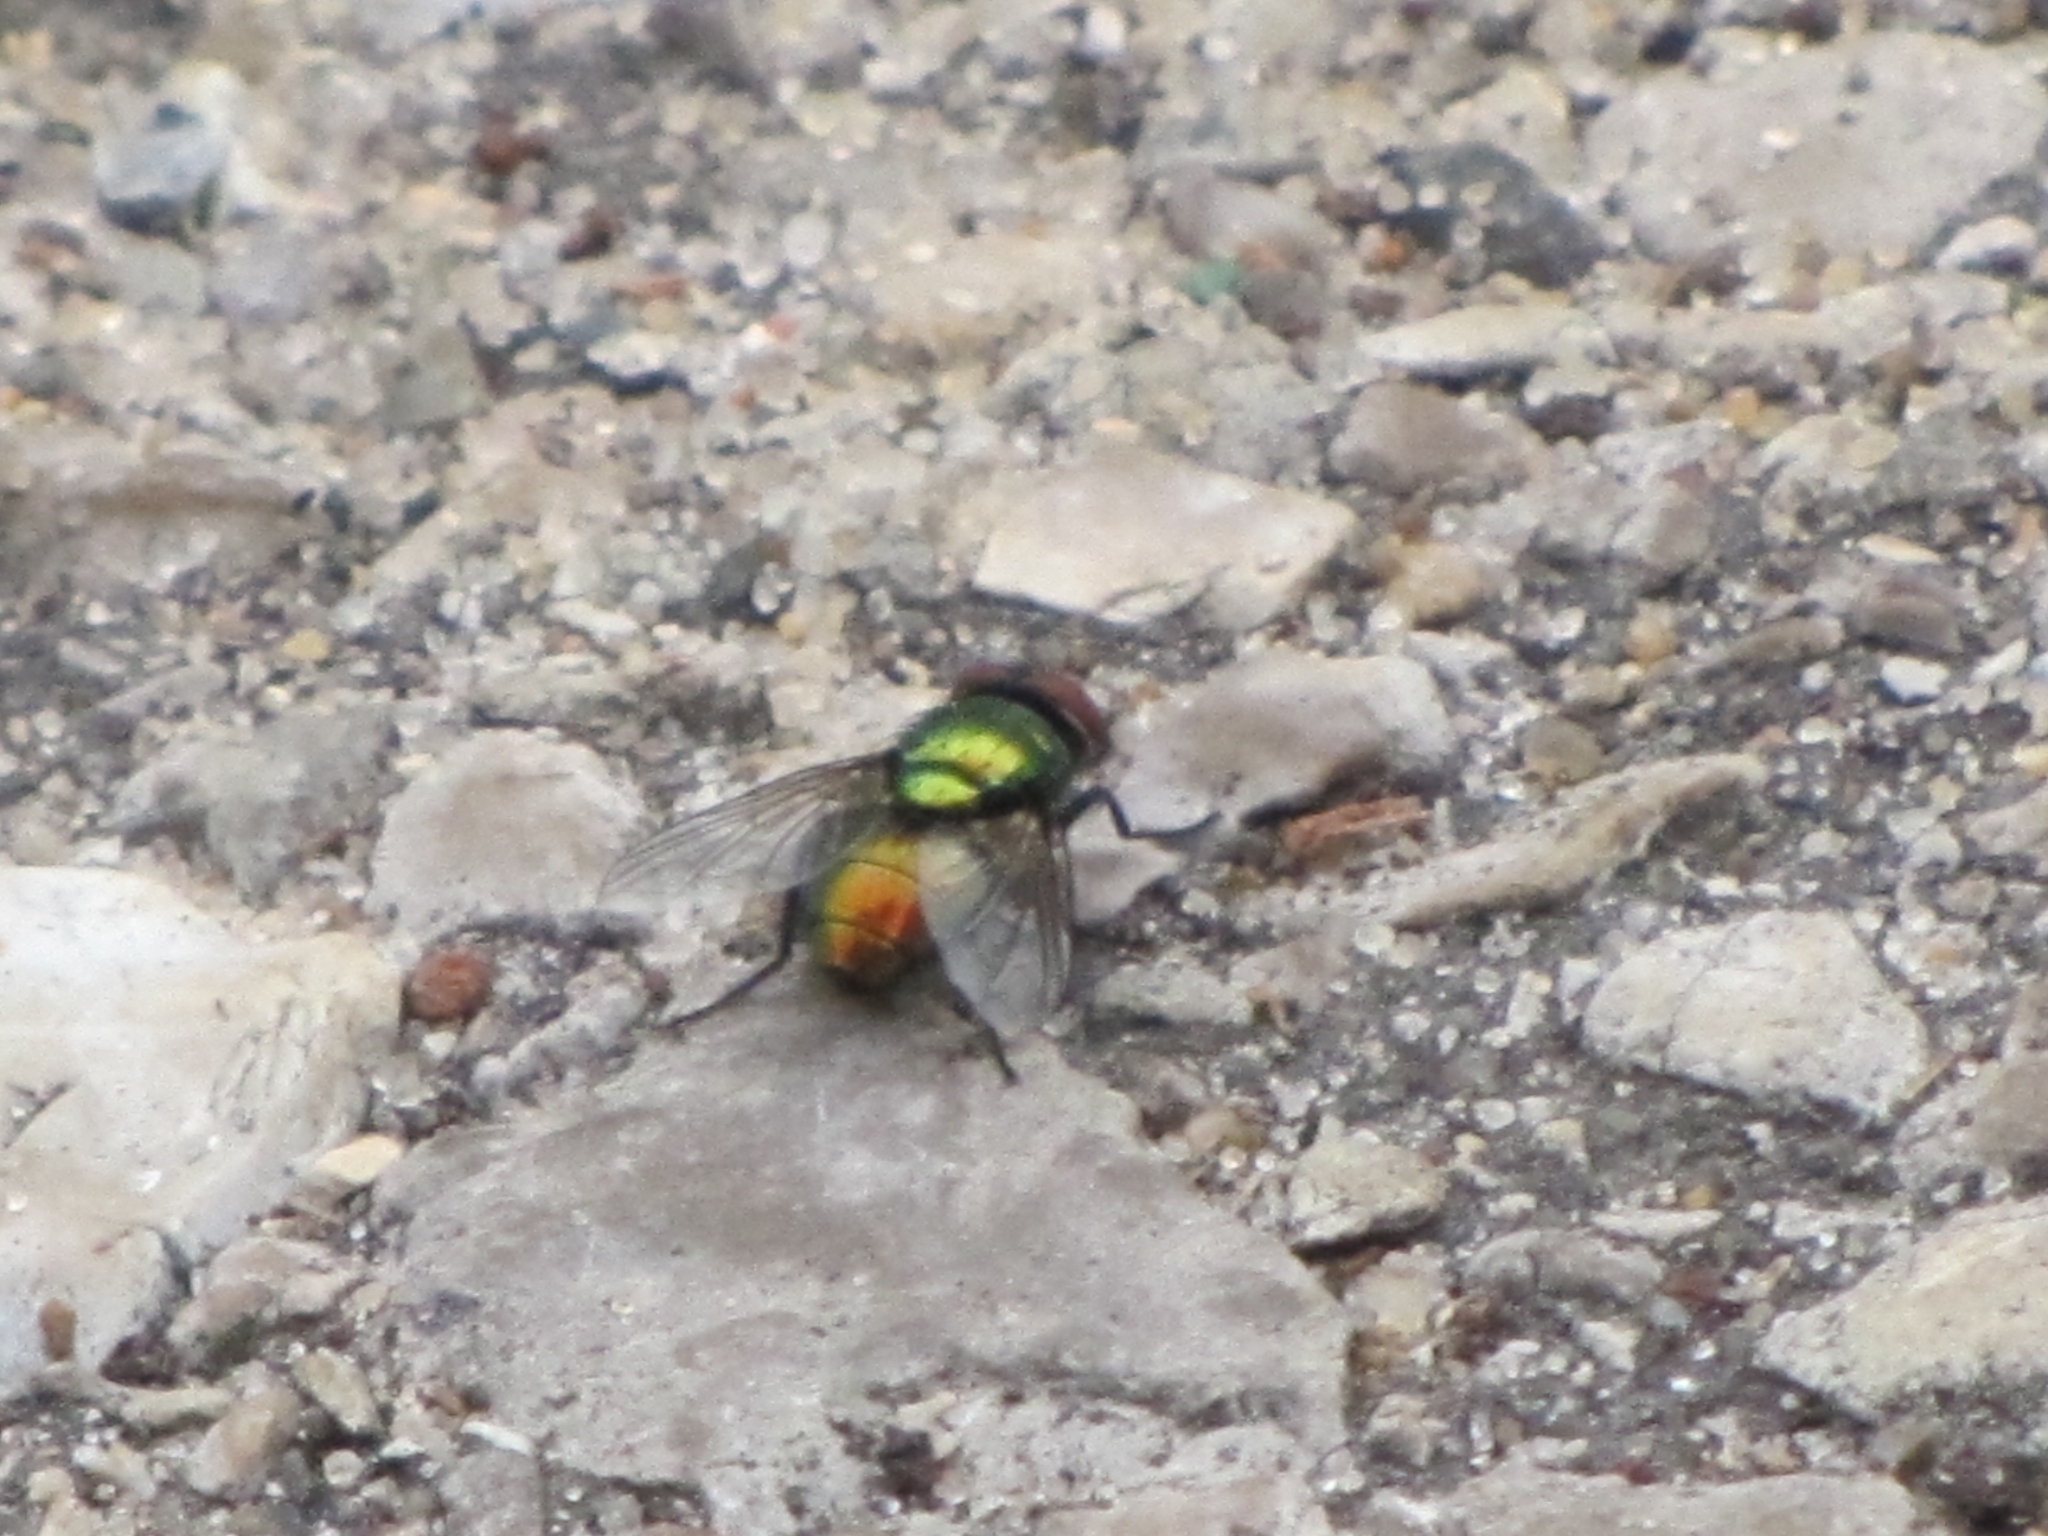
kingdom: Animalia
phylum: Arthropoda
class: Insecta
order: Diptera
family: Calliphoridae
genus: Lucilia
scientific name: Lucilia
